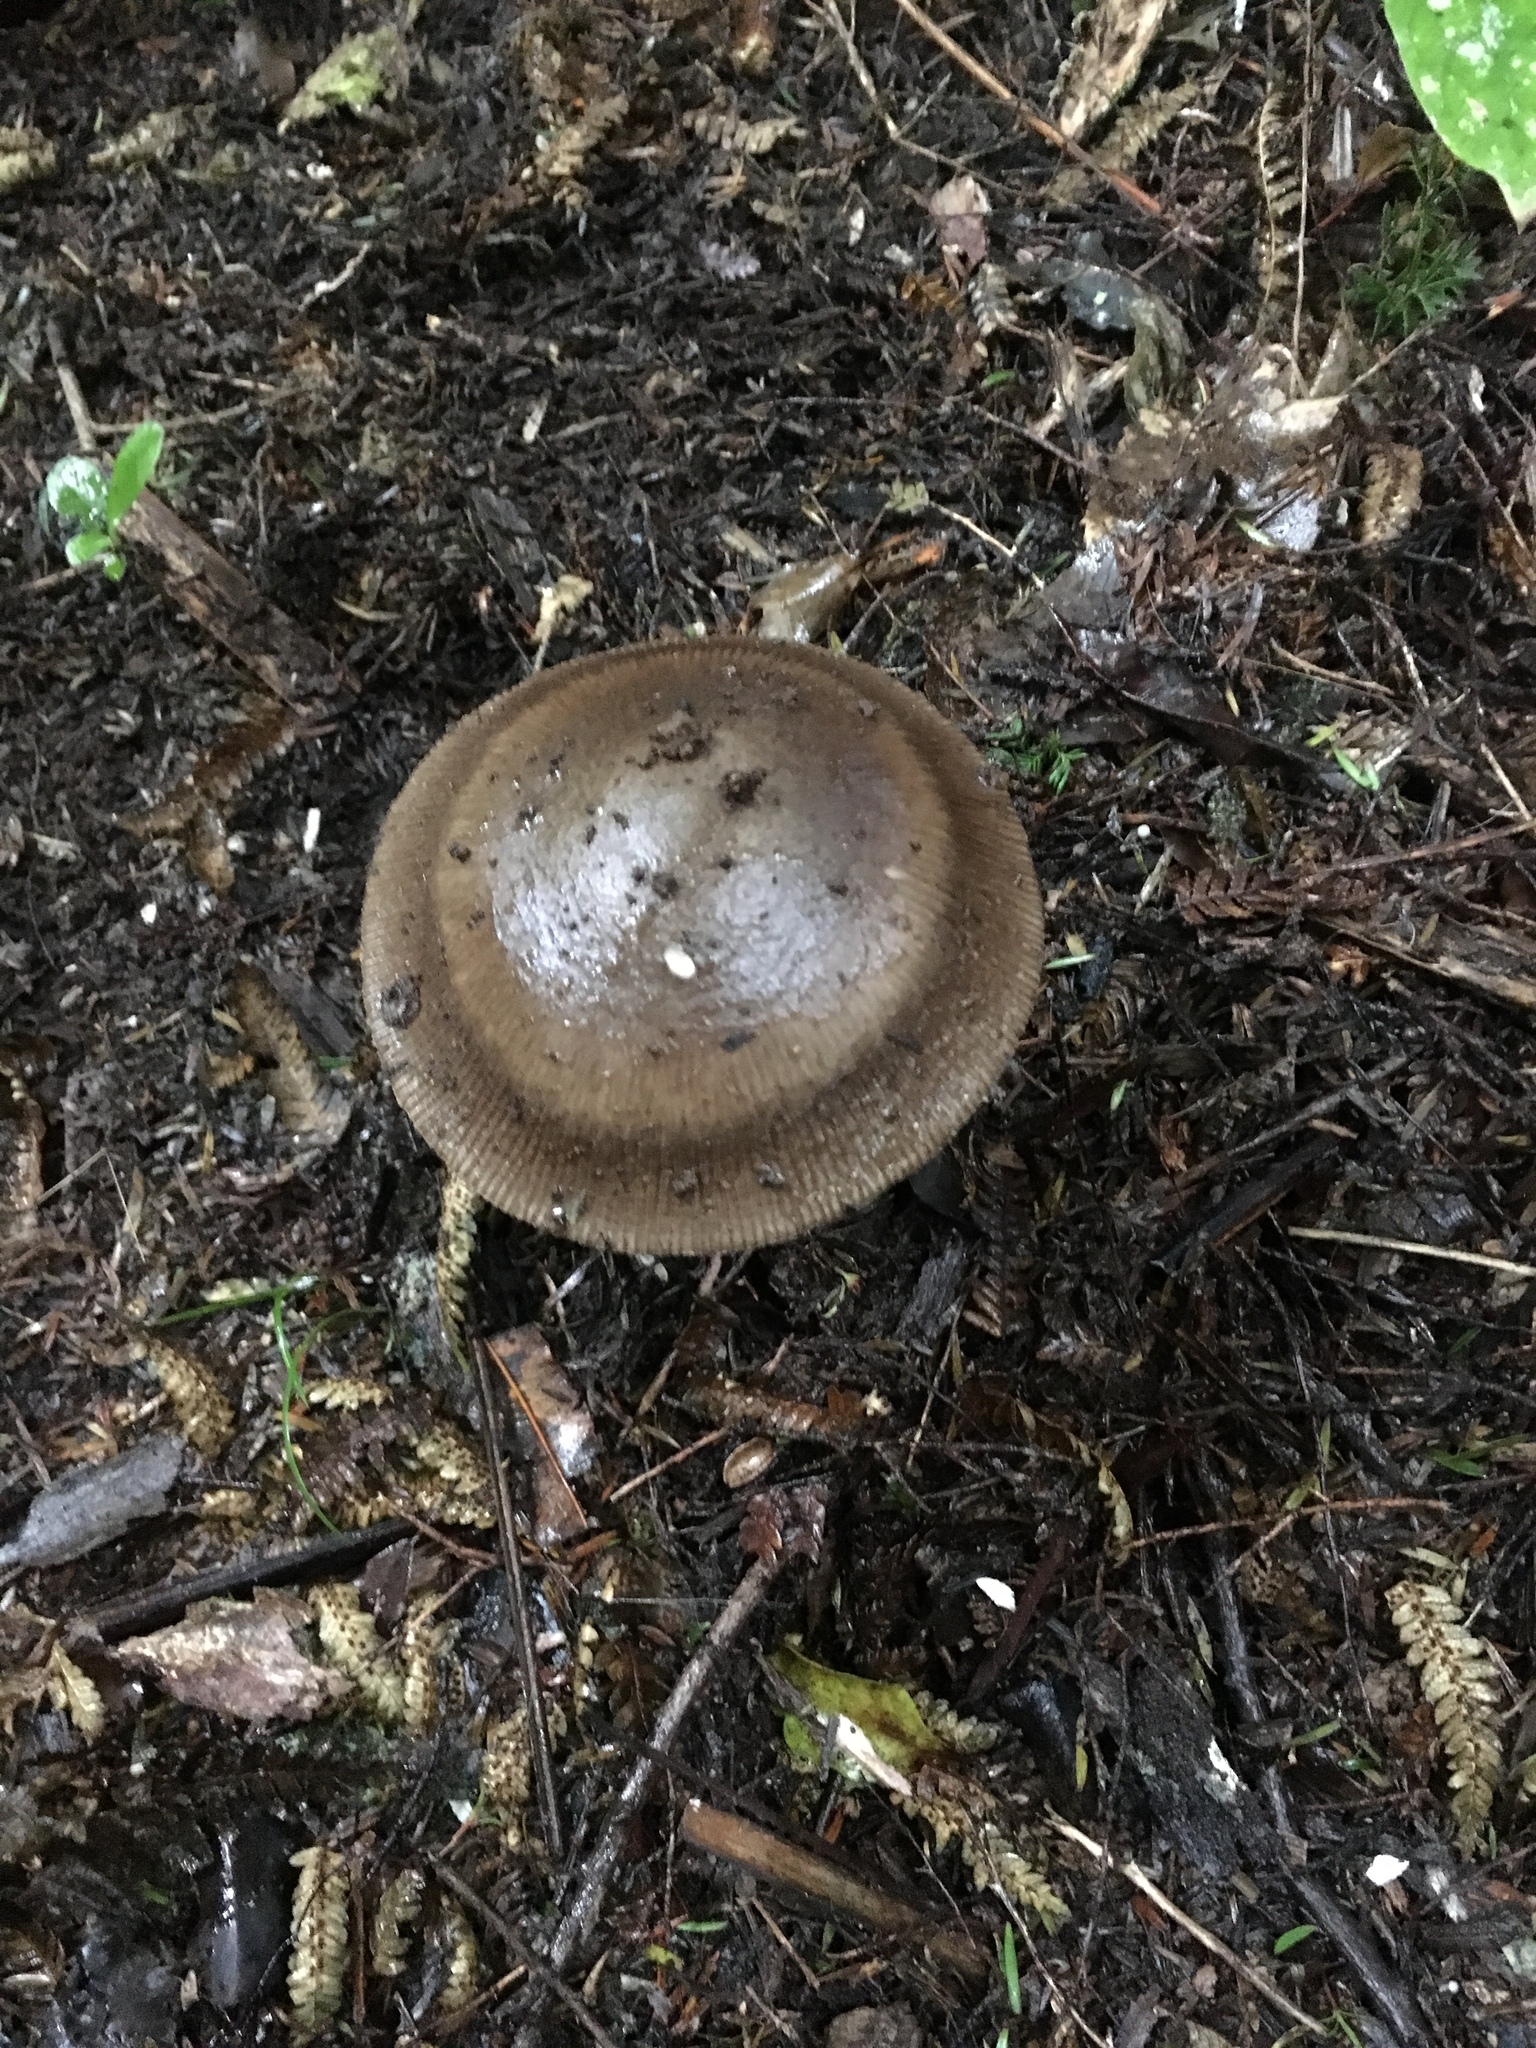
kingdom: Fungi
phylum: Basidiomycota
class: Agaricomycetes
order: Agaricales
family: Amanitaceae
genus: Amanita
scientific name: Amanita pekeoides
